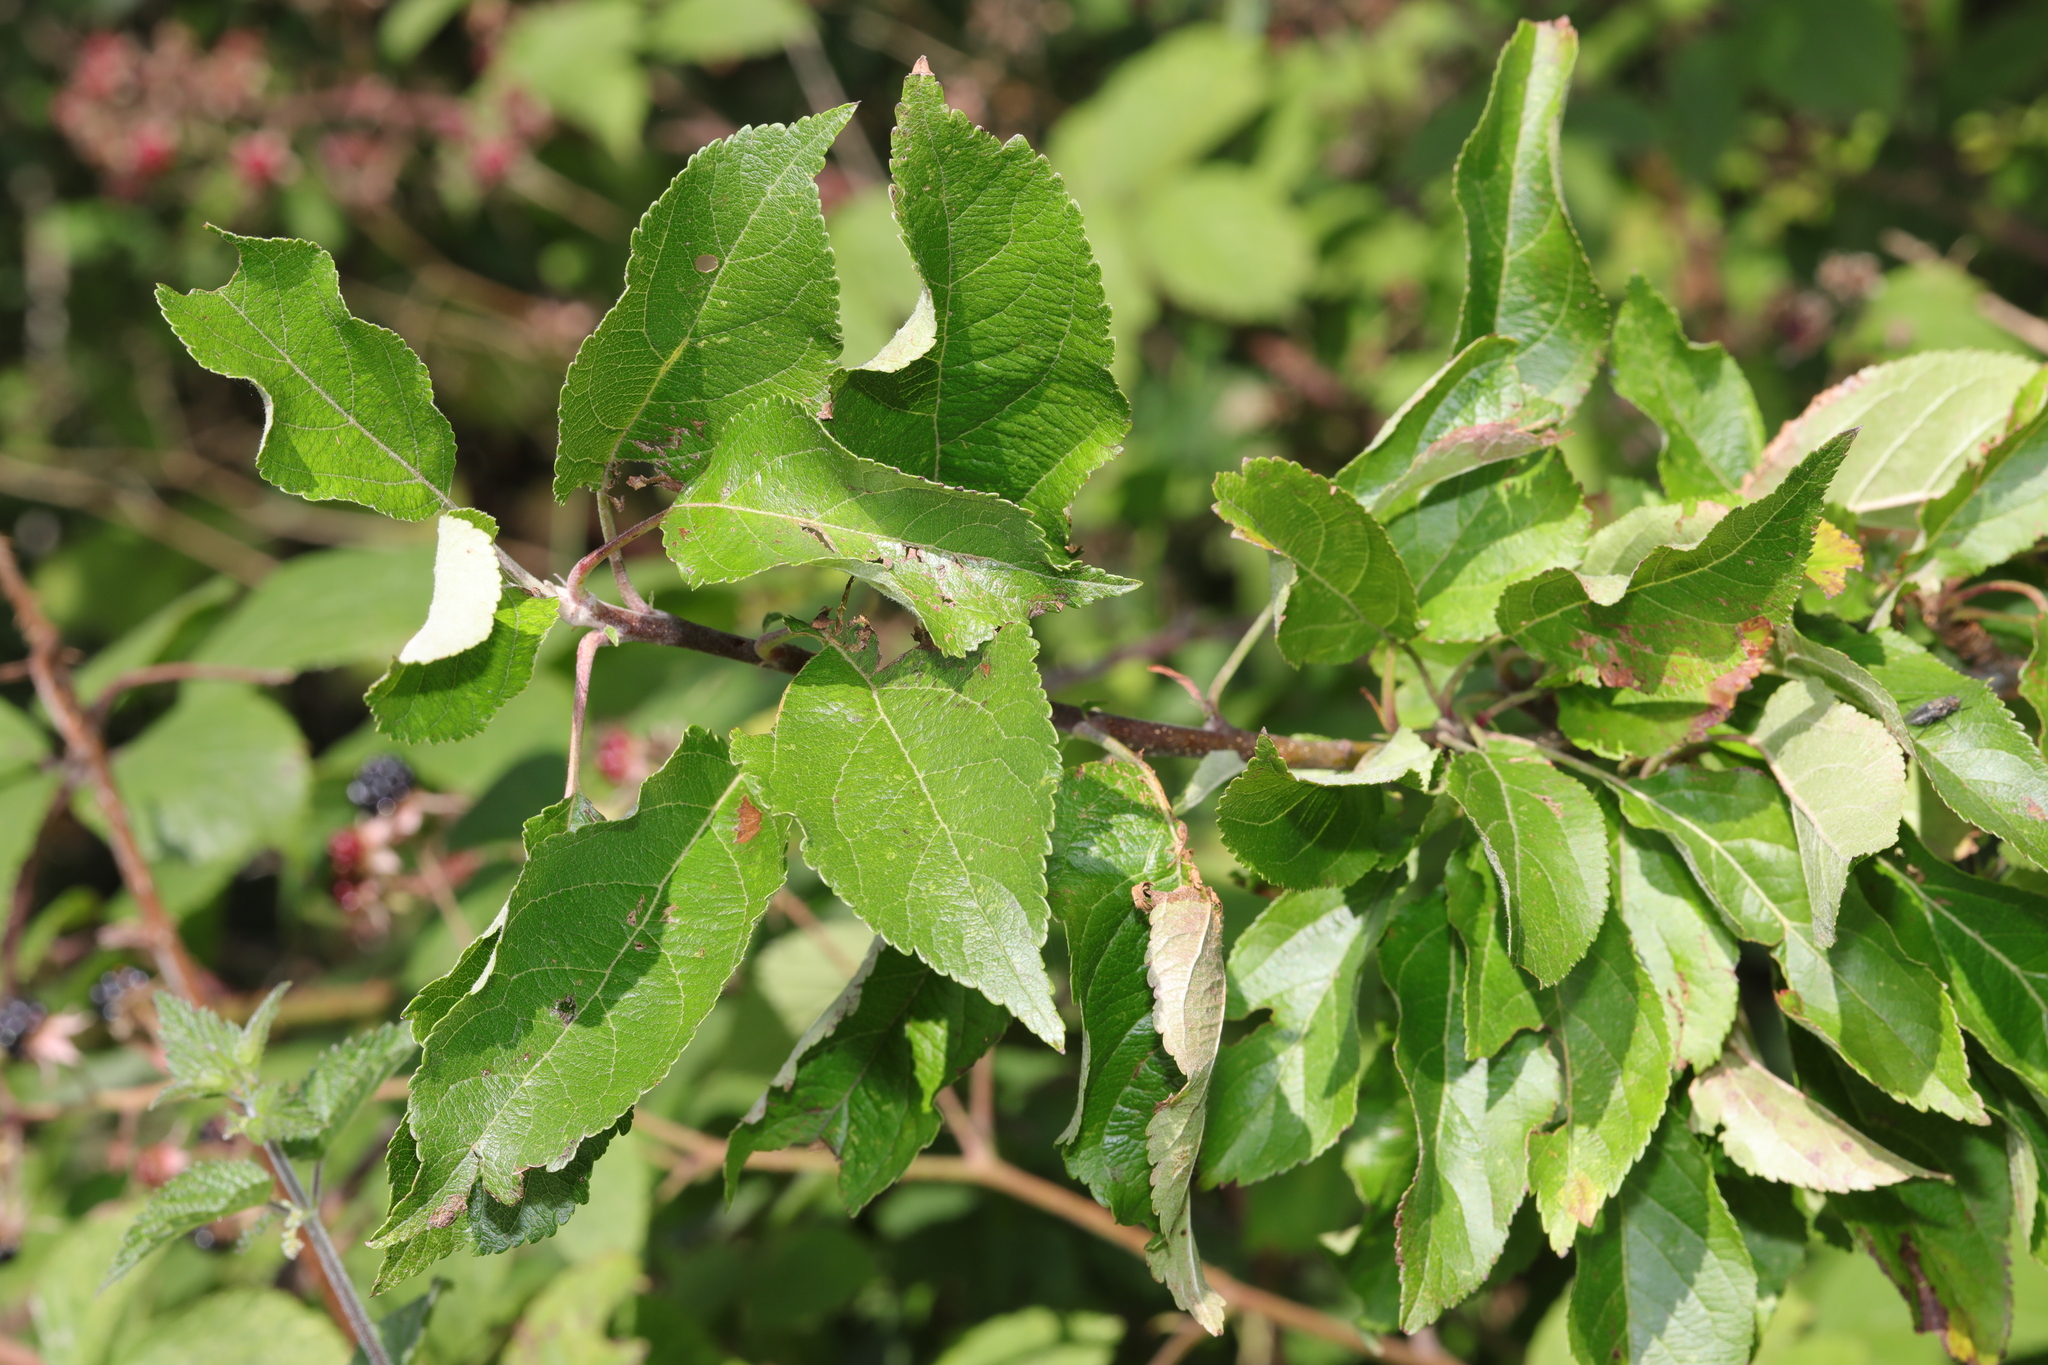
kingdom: Plantae
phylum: Tracheophyta
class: Magnoliopsida
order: Rosales
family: Rosaceae
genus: Malus
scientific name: Malus domestica
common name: Apple
